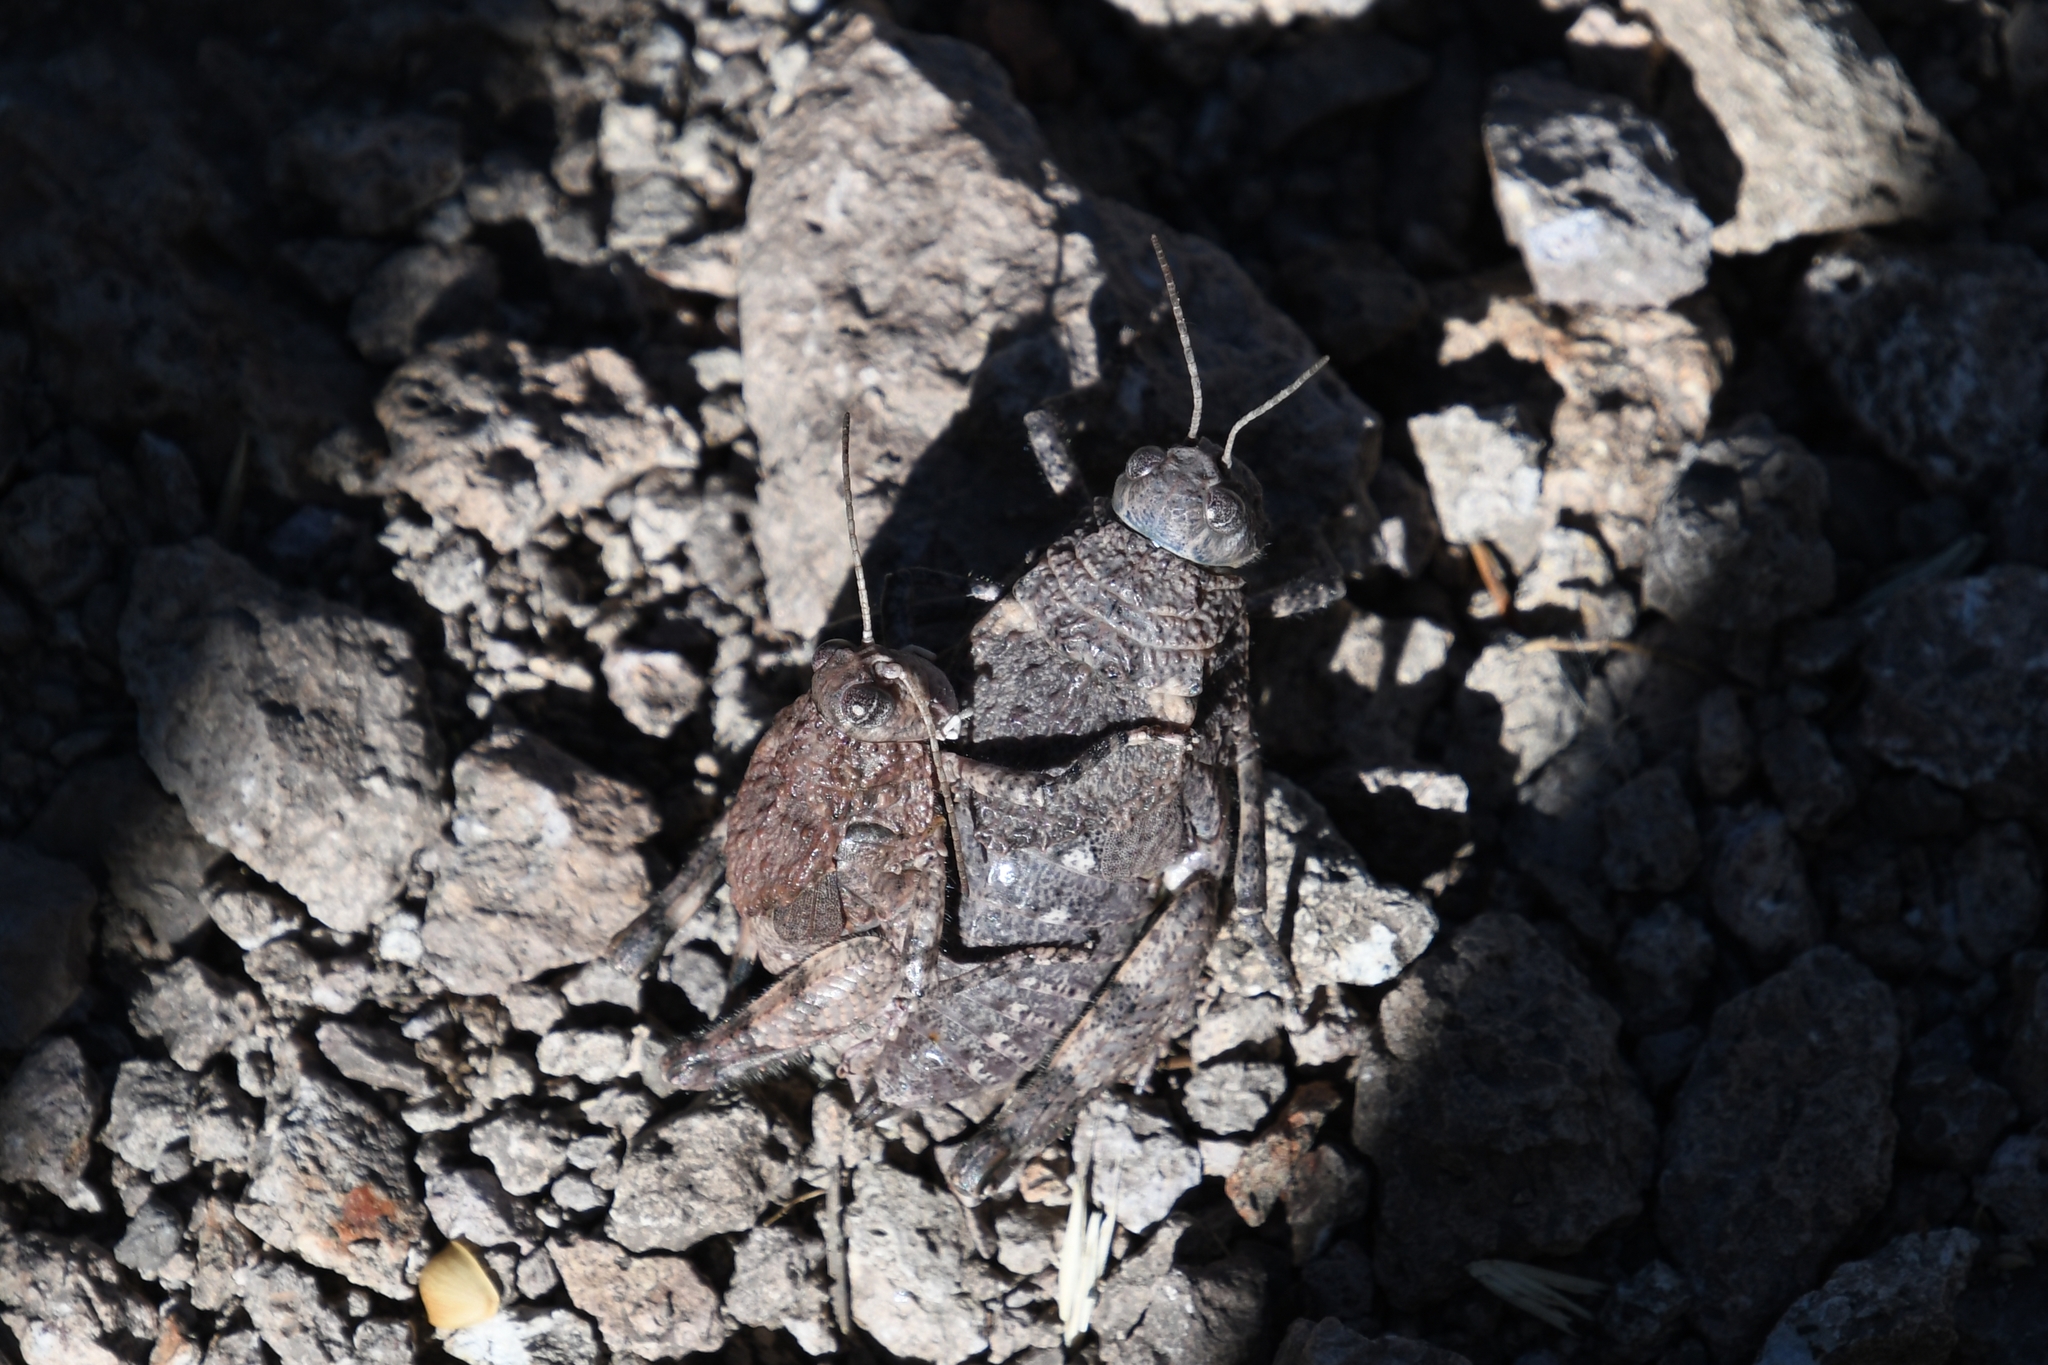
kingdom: Animalia
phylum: Arthropoda
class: Insecta
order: Orthoptera
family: Romaleidae
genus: Phrynotettix
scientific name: Phrynotettix tshivavensis
